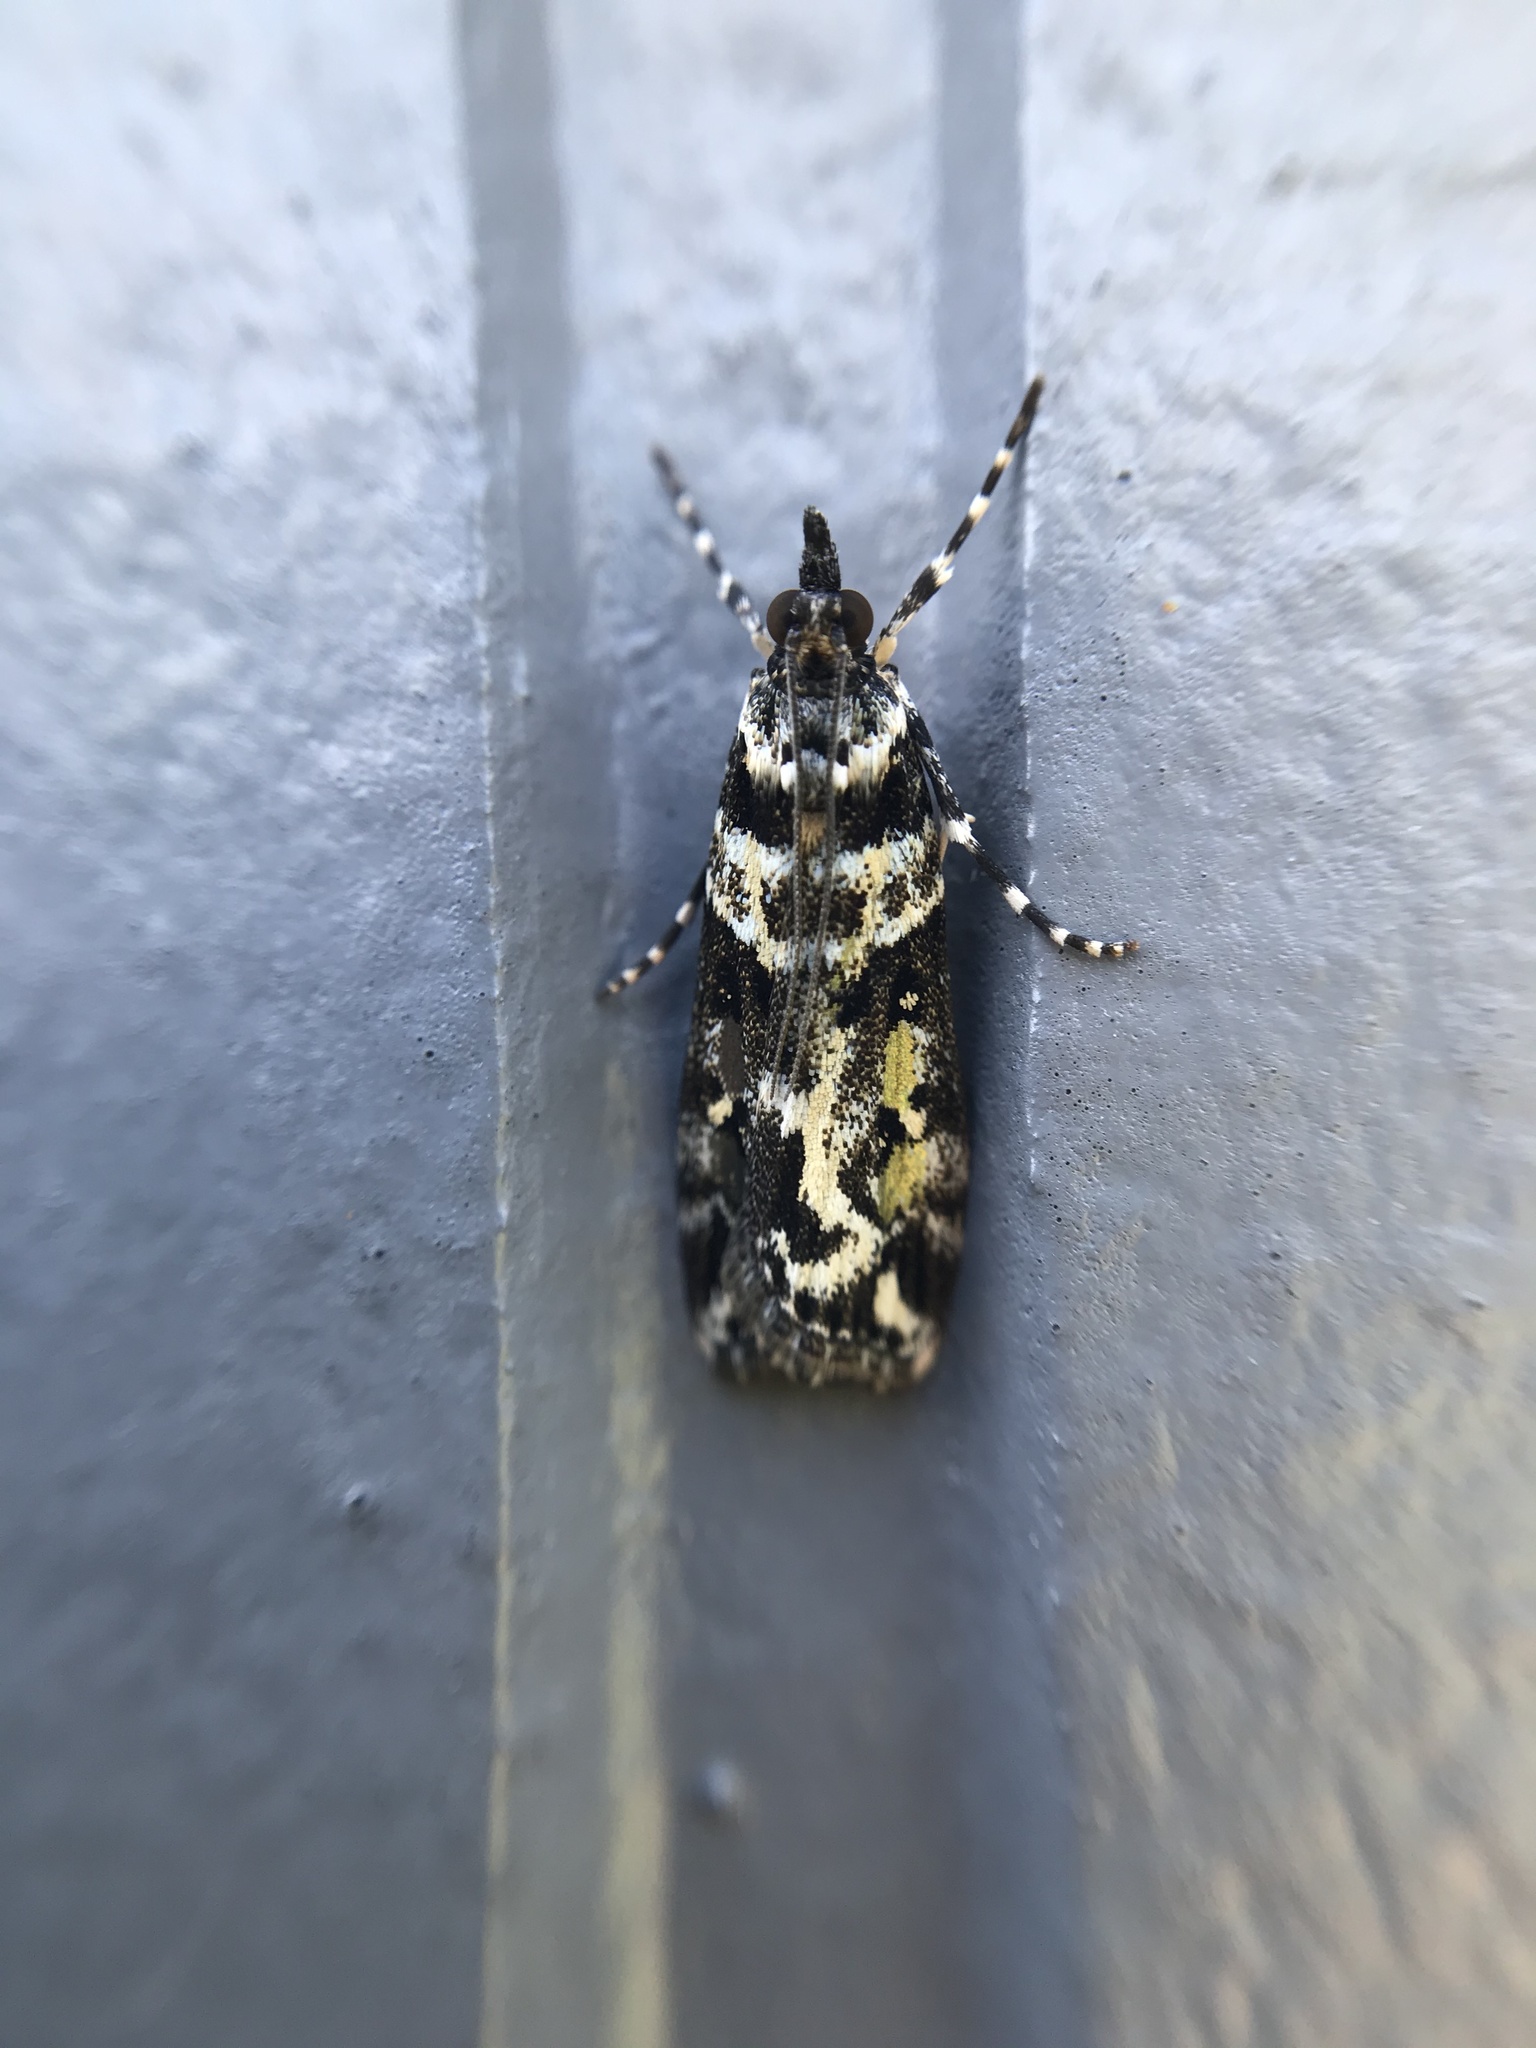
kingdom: Animalia
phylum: Arthropoda
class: Insecta
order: Lepidoptera
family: Crambidae
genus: Eudonia
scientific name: Eudonia diphtheralis
